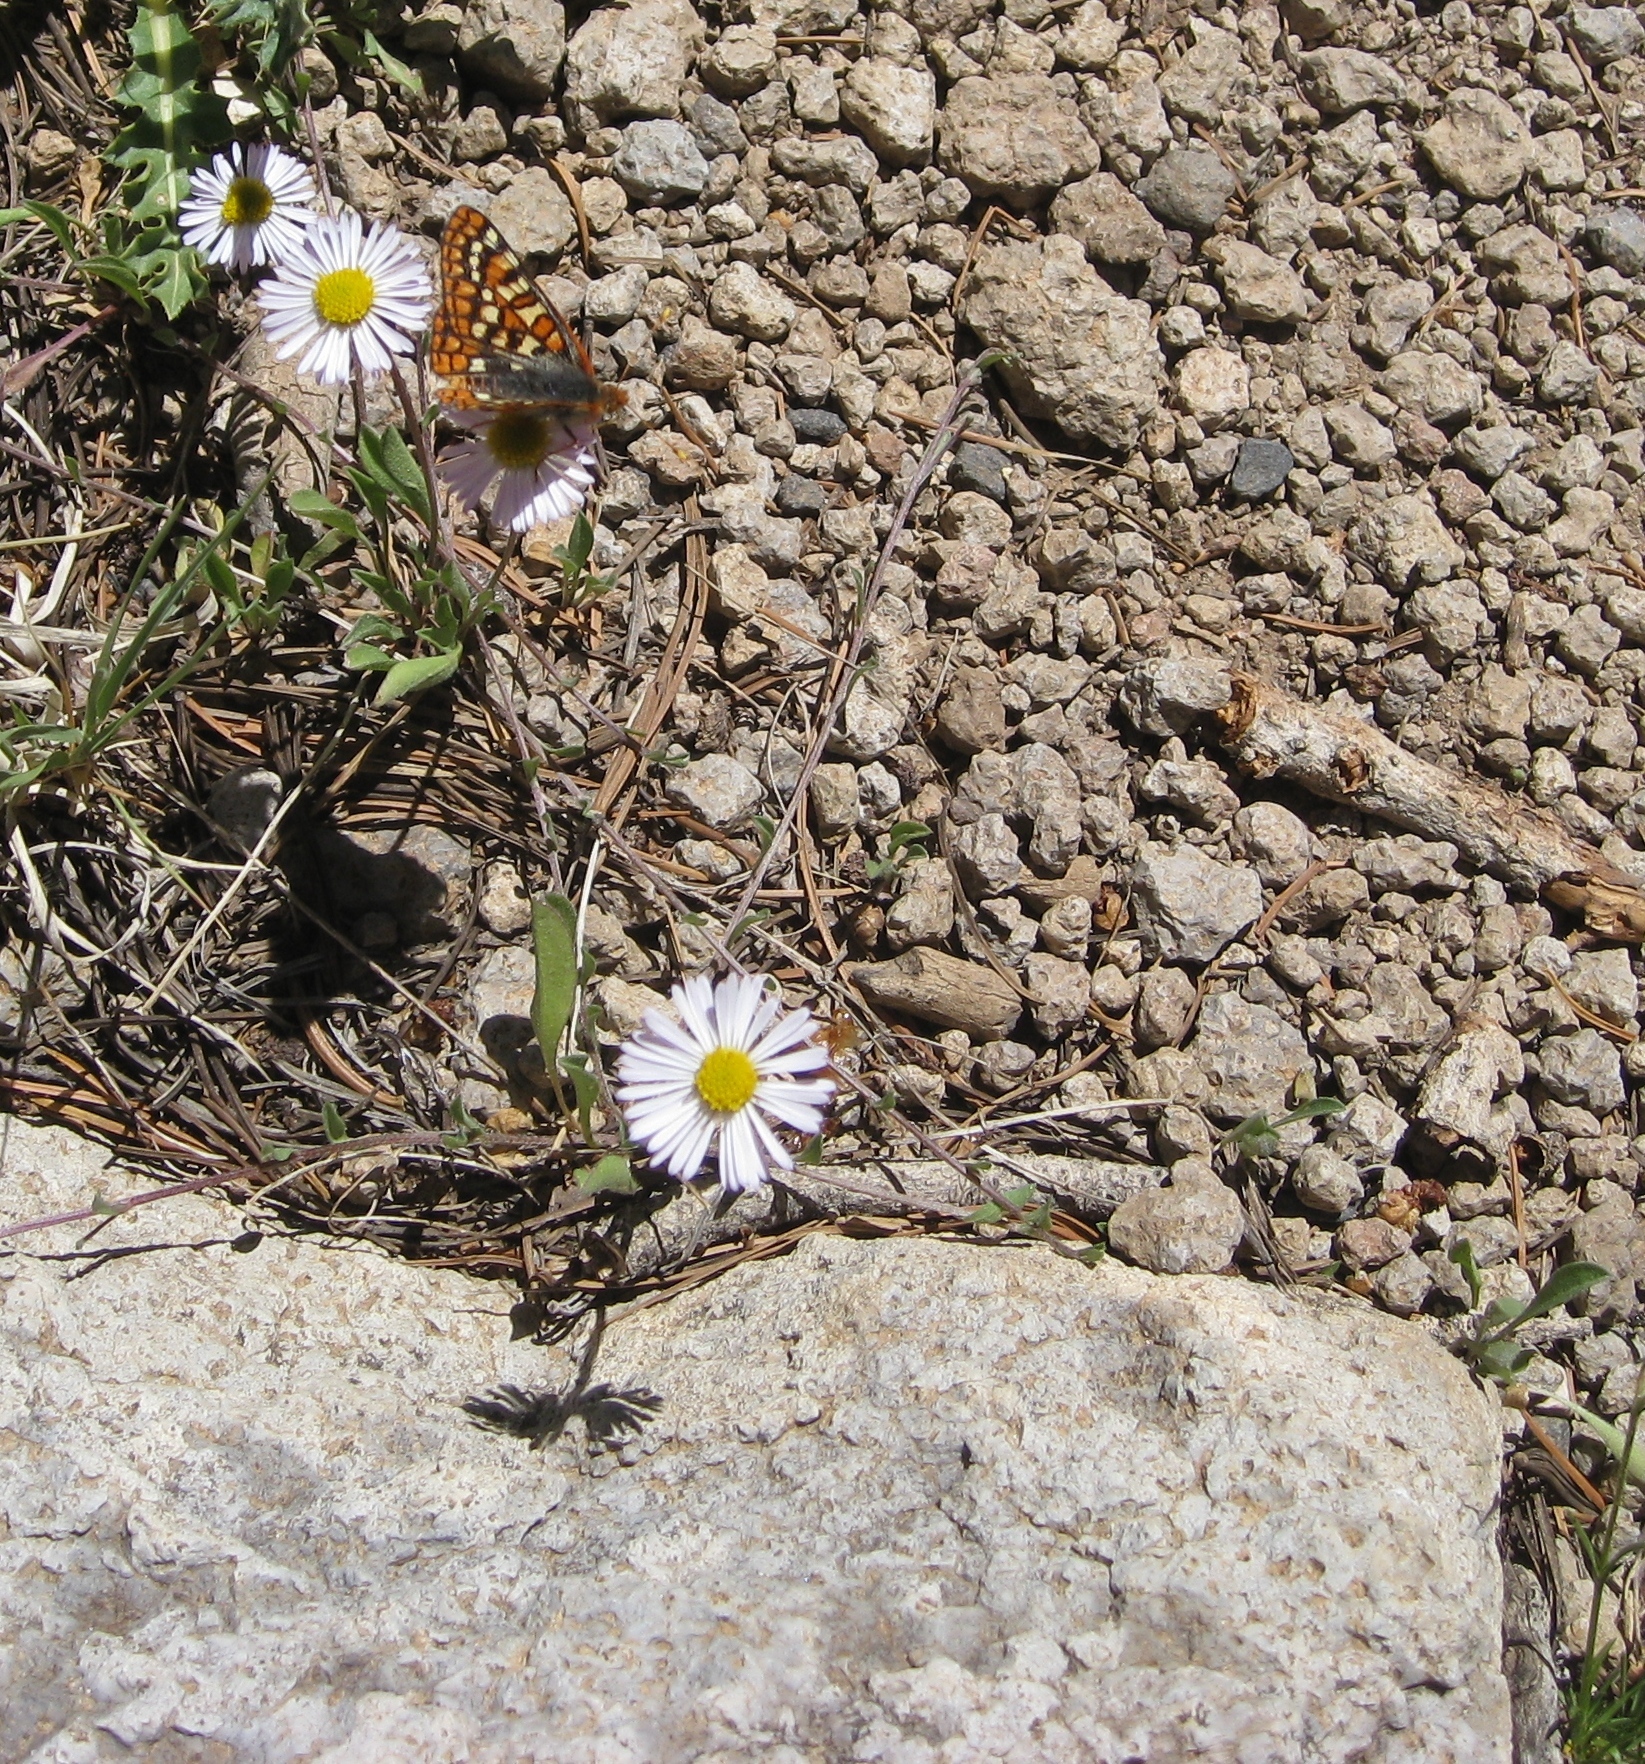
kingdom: Plantae
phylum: Tracheophyta
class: Magnoliopsida
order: Asterales
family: Asteraceae
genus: Erigeron
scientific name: Erigeron ursinus
